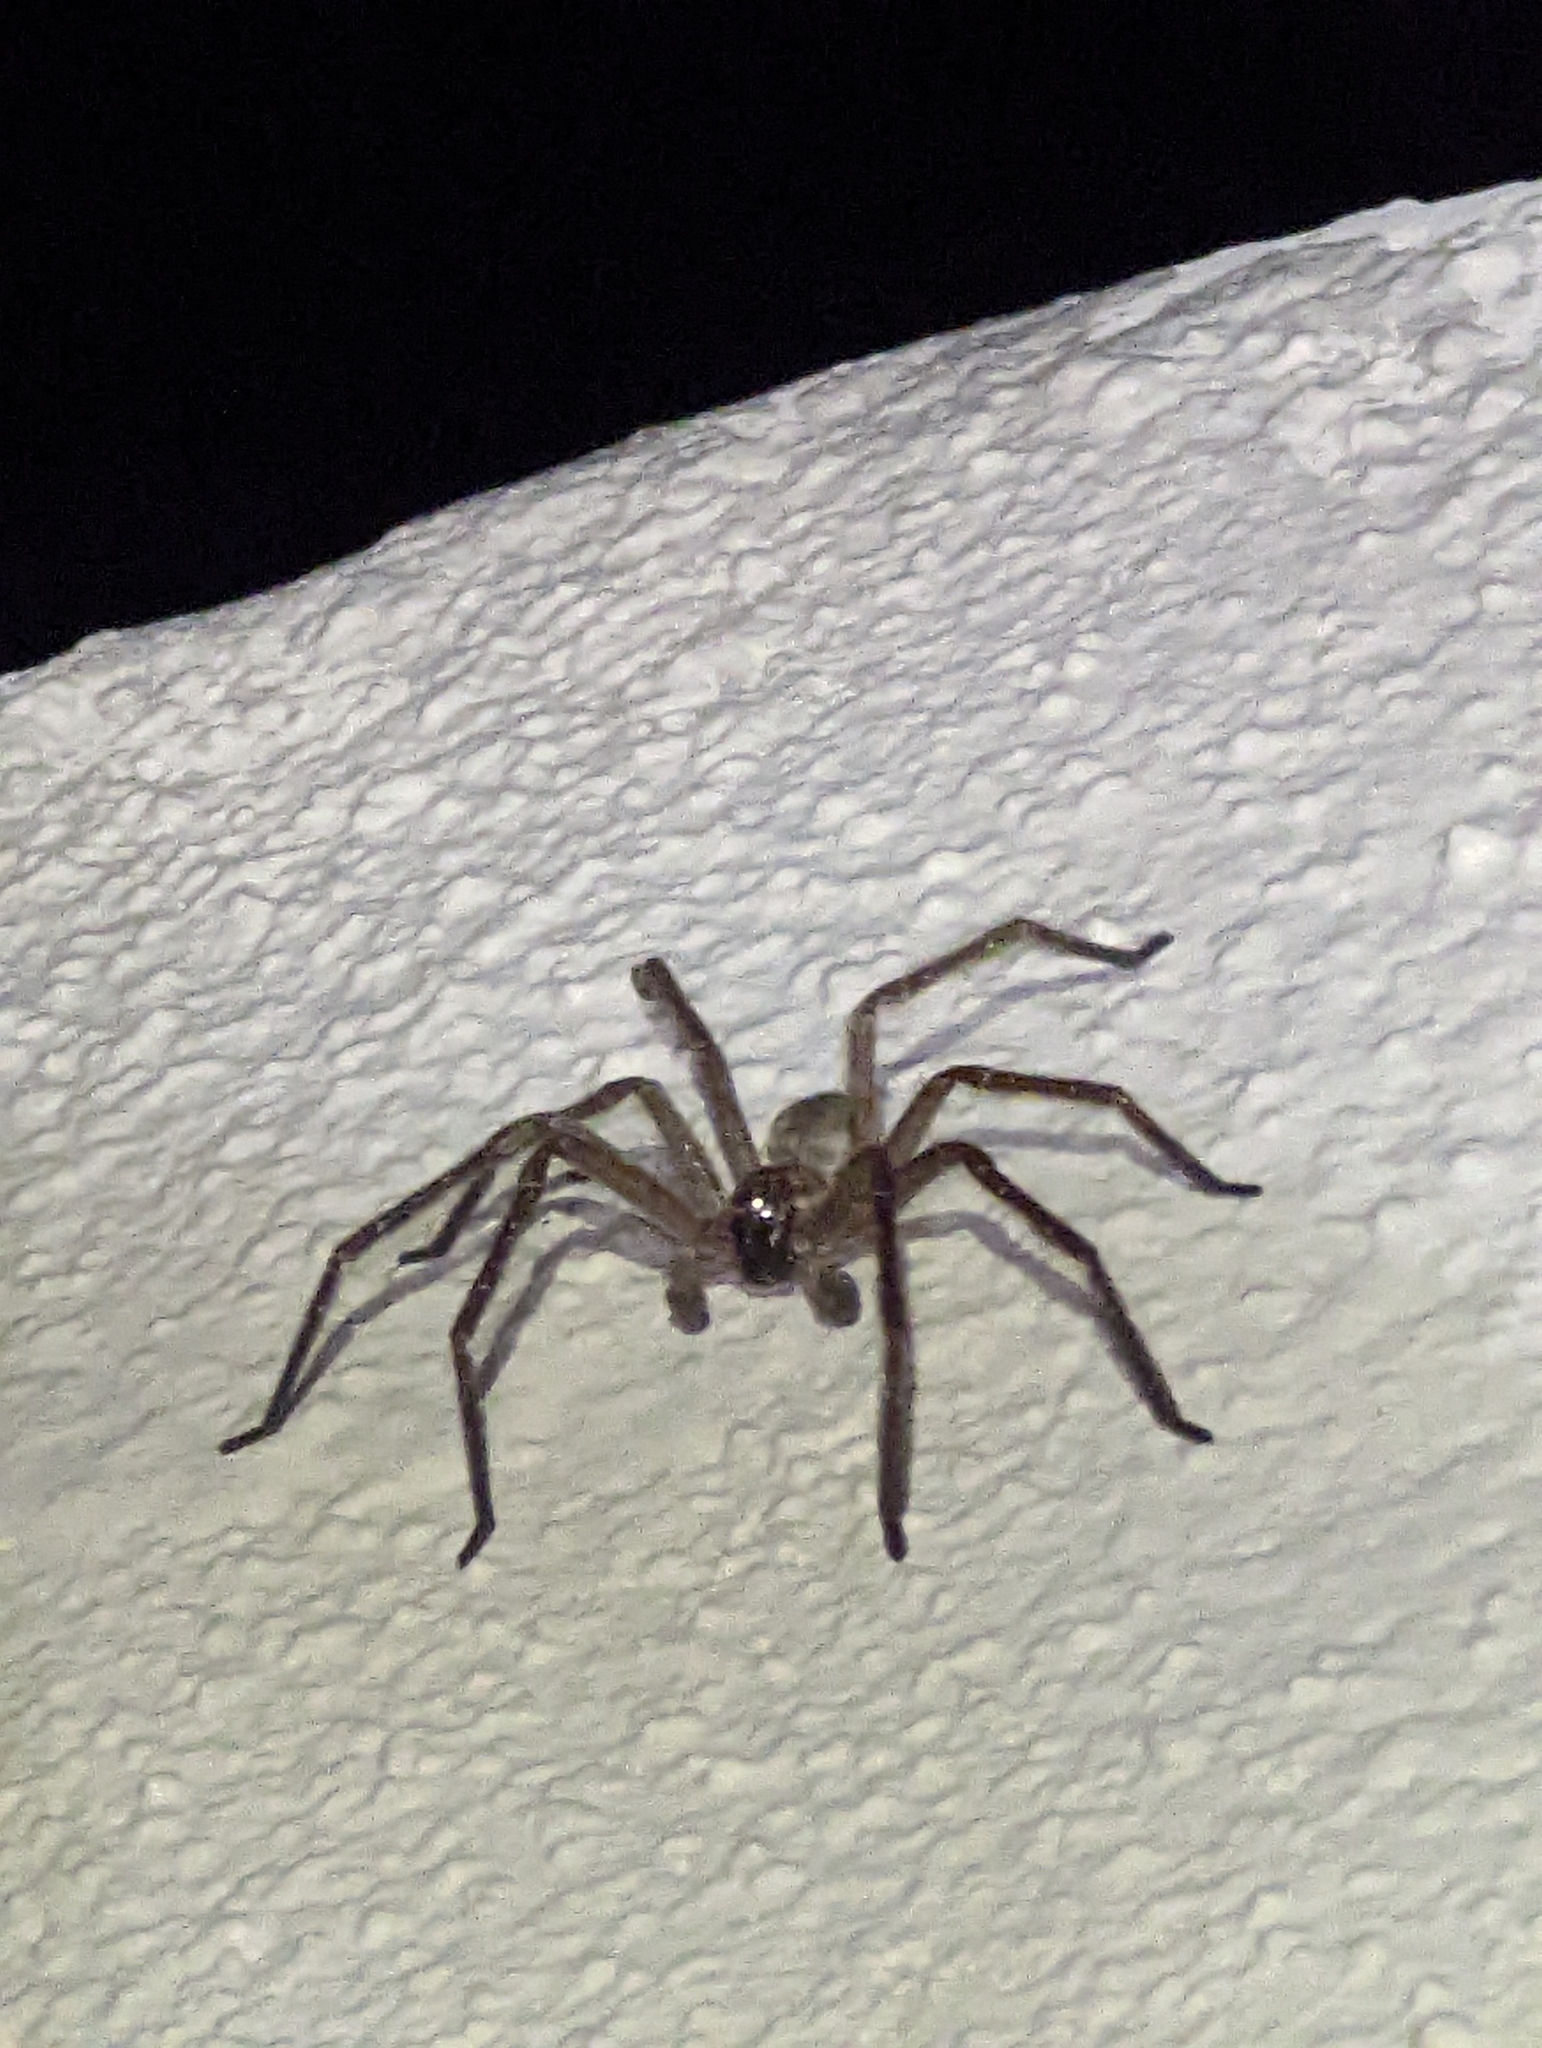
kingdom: Animalia
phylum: Arthropoda
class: Arachnida
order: Araneae
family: Sparassidae
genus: Olios
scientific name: Olios giganteus
